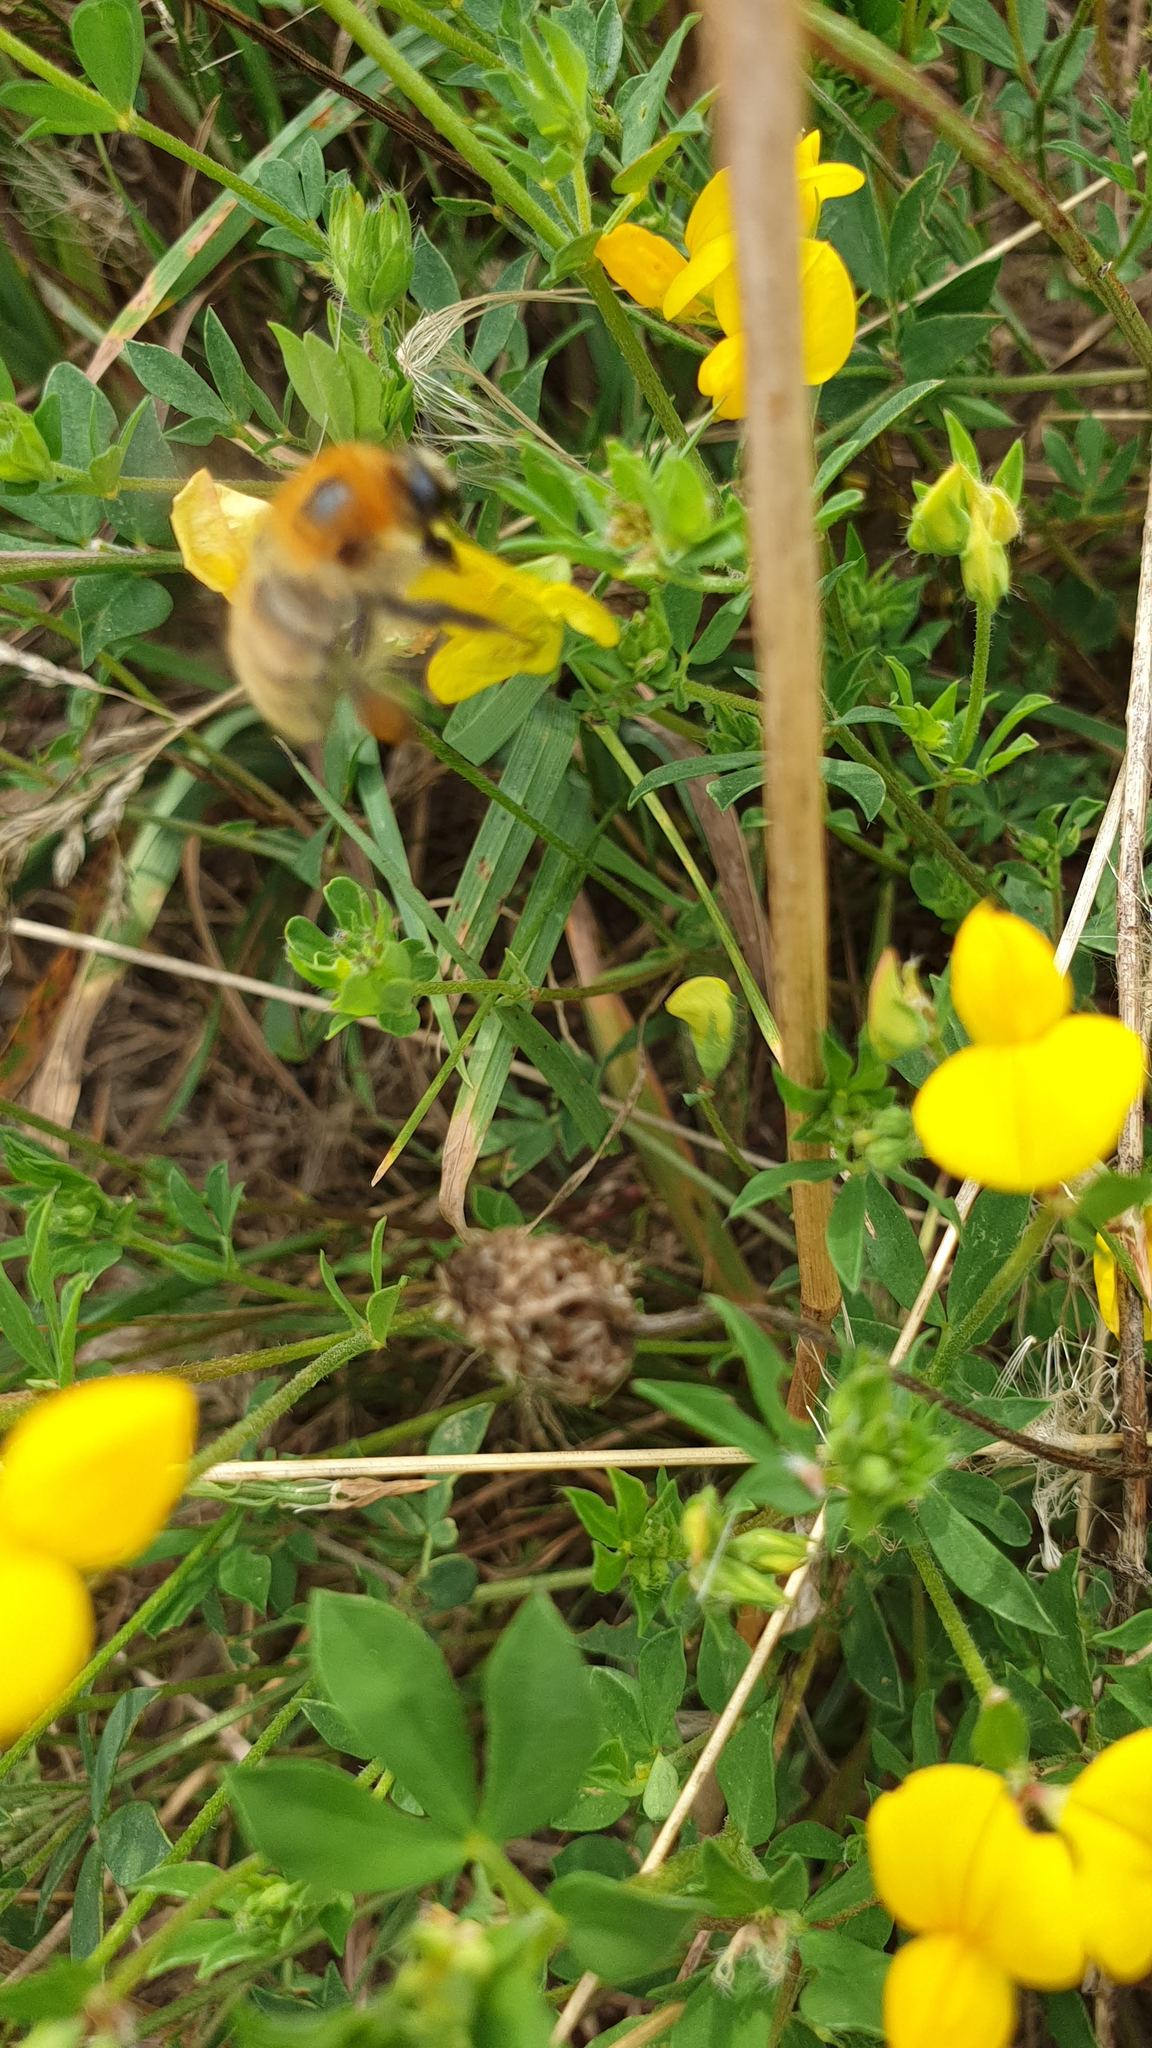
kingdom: Animalia
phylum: Arthropoda
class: Insecta
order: Hymenoptera
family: Apidae
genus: Bombus
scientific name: Bombus muscorum
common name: Moss carder-bee
